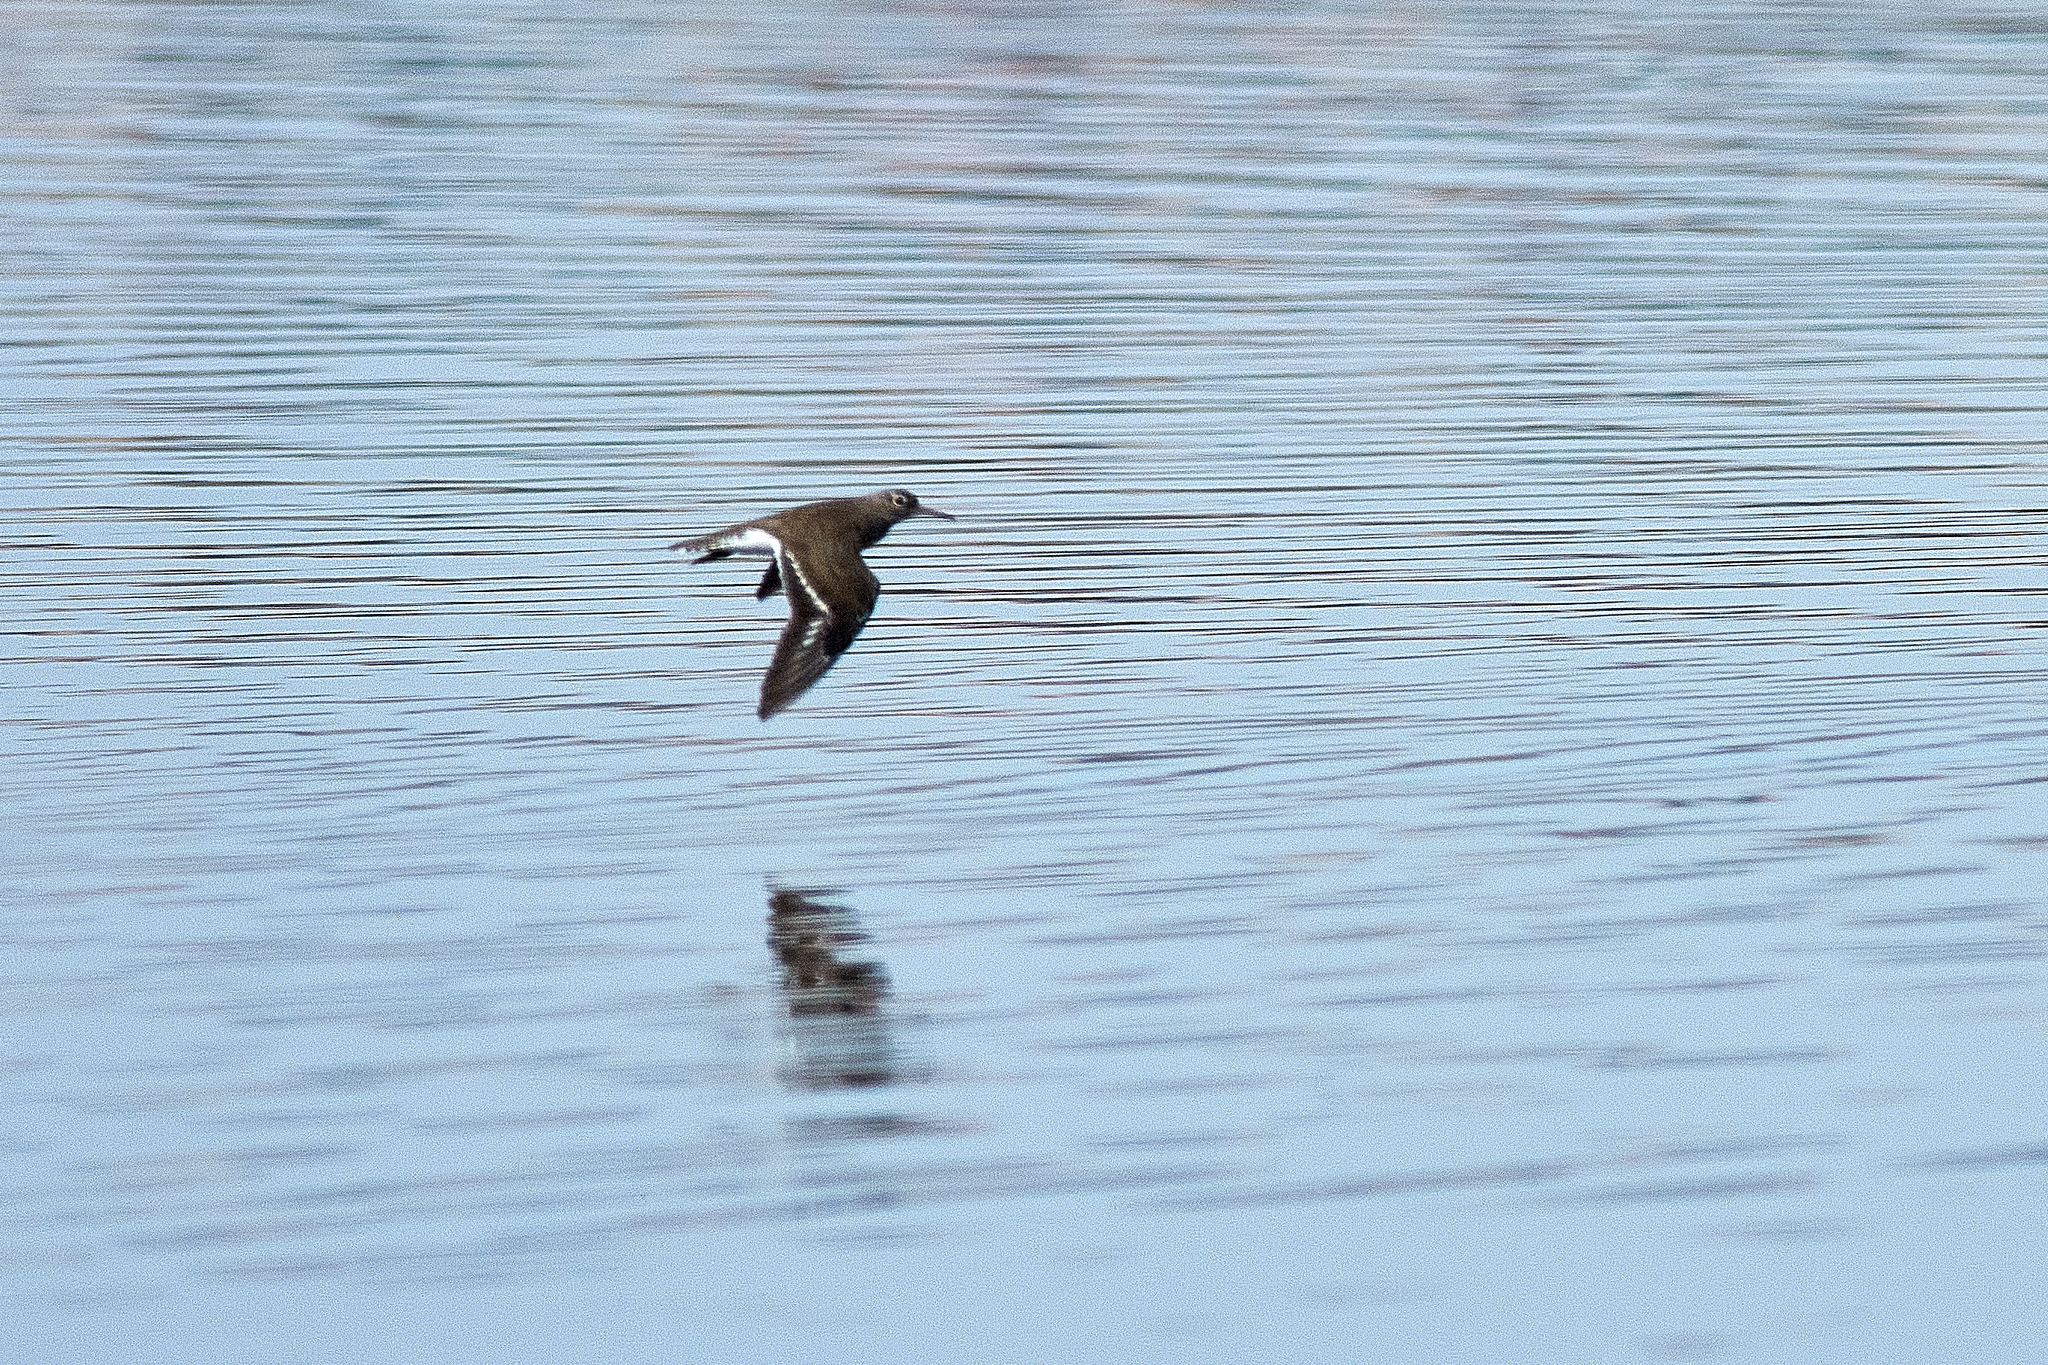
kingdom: Animalia
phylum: Chordata
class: Aves
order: Charadriiformes
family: Scolopacidae
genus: Actitis
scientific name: Actitis hypoleucos
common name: Common sandpiper
